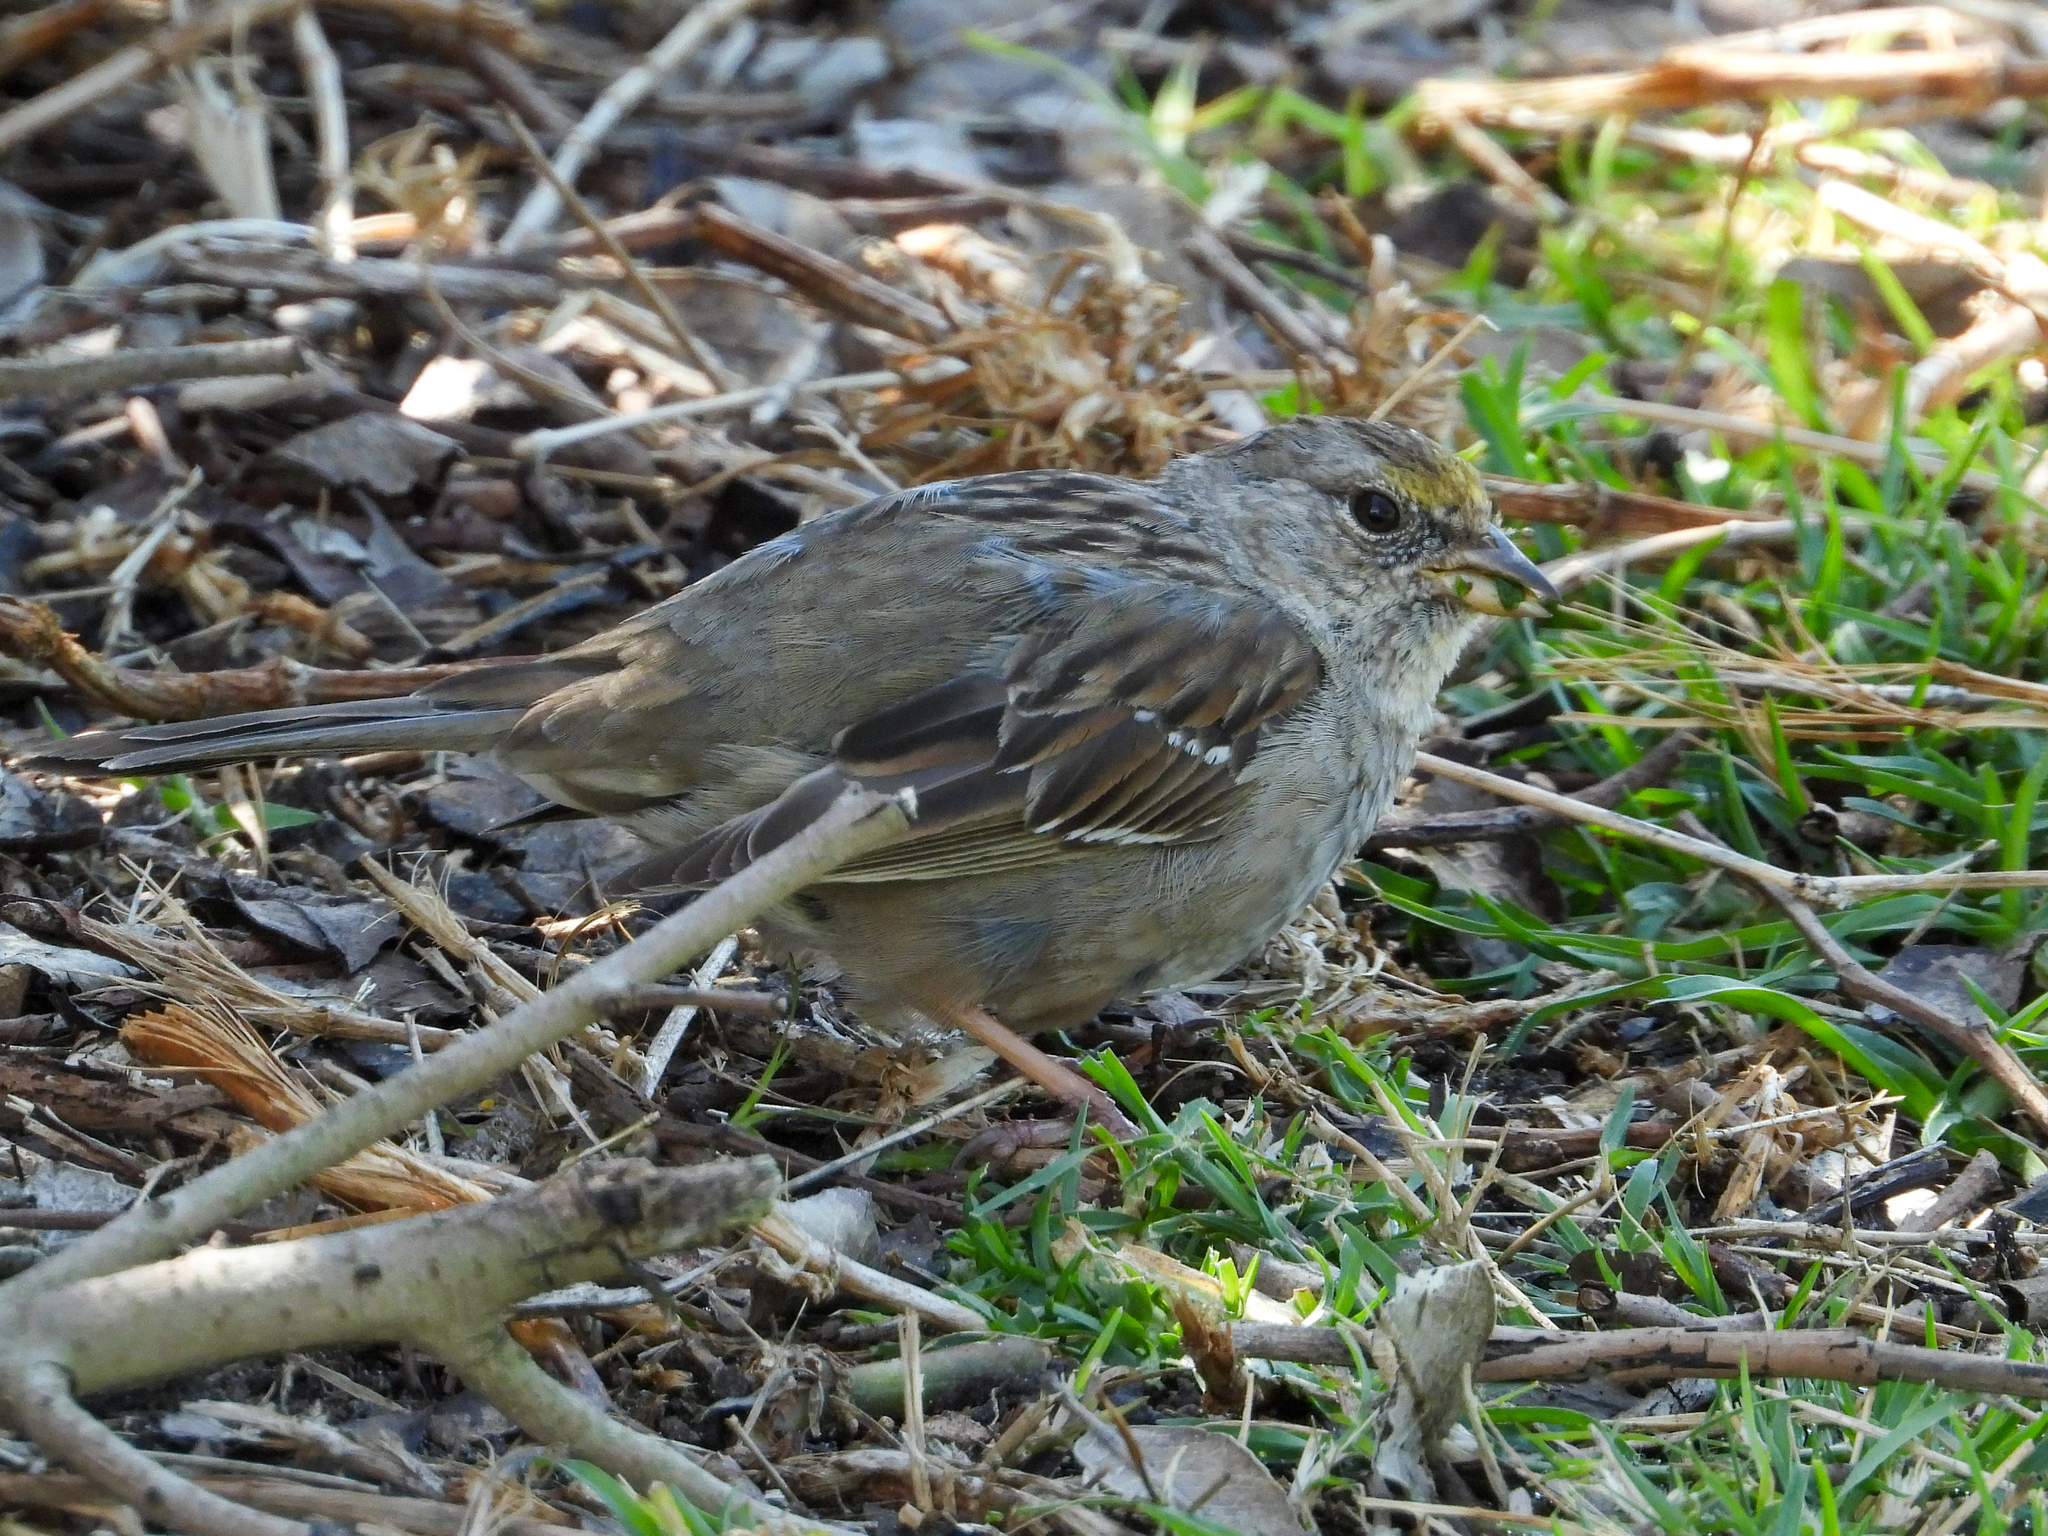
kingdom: Animalia
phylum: Chordata
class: Aves
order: Passeriformes
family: Passerellidae
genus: Zonotrichia
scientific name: Zonotrichia atricapilla
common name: Golden-crowned sparrow
